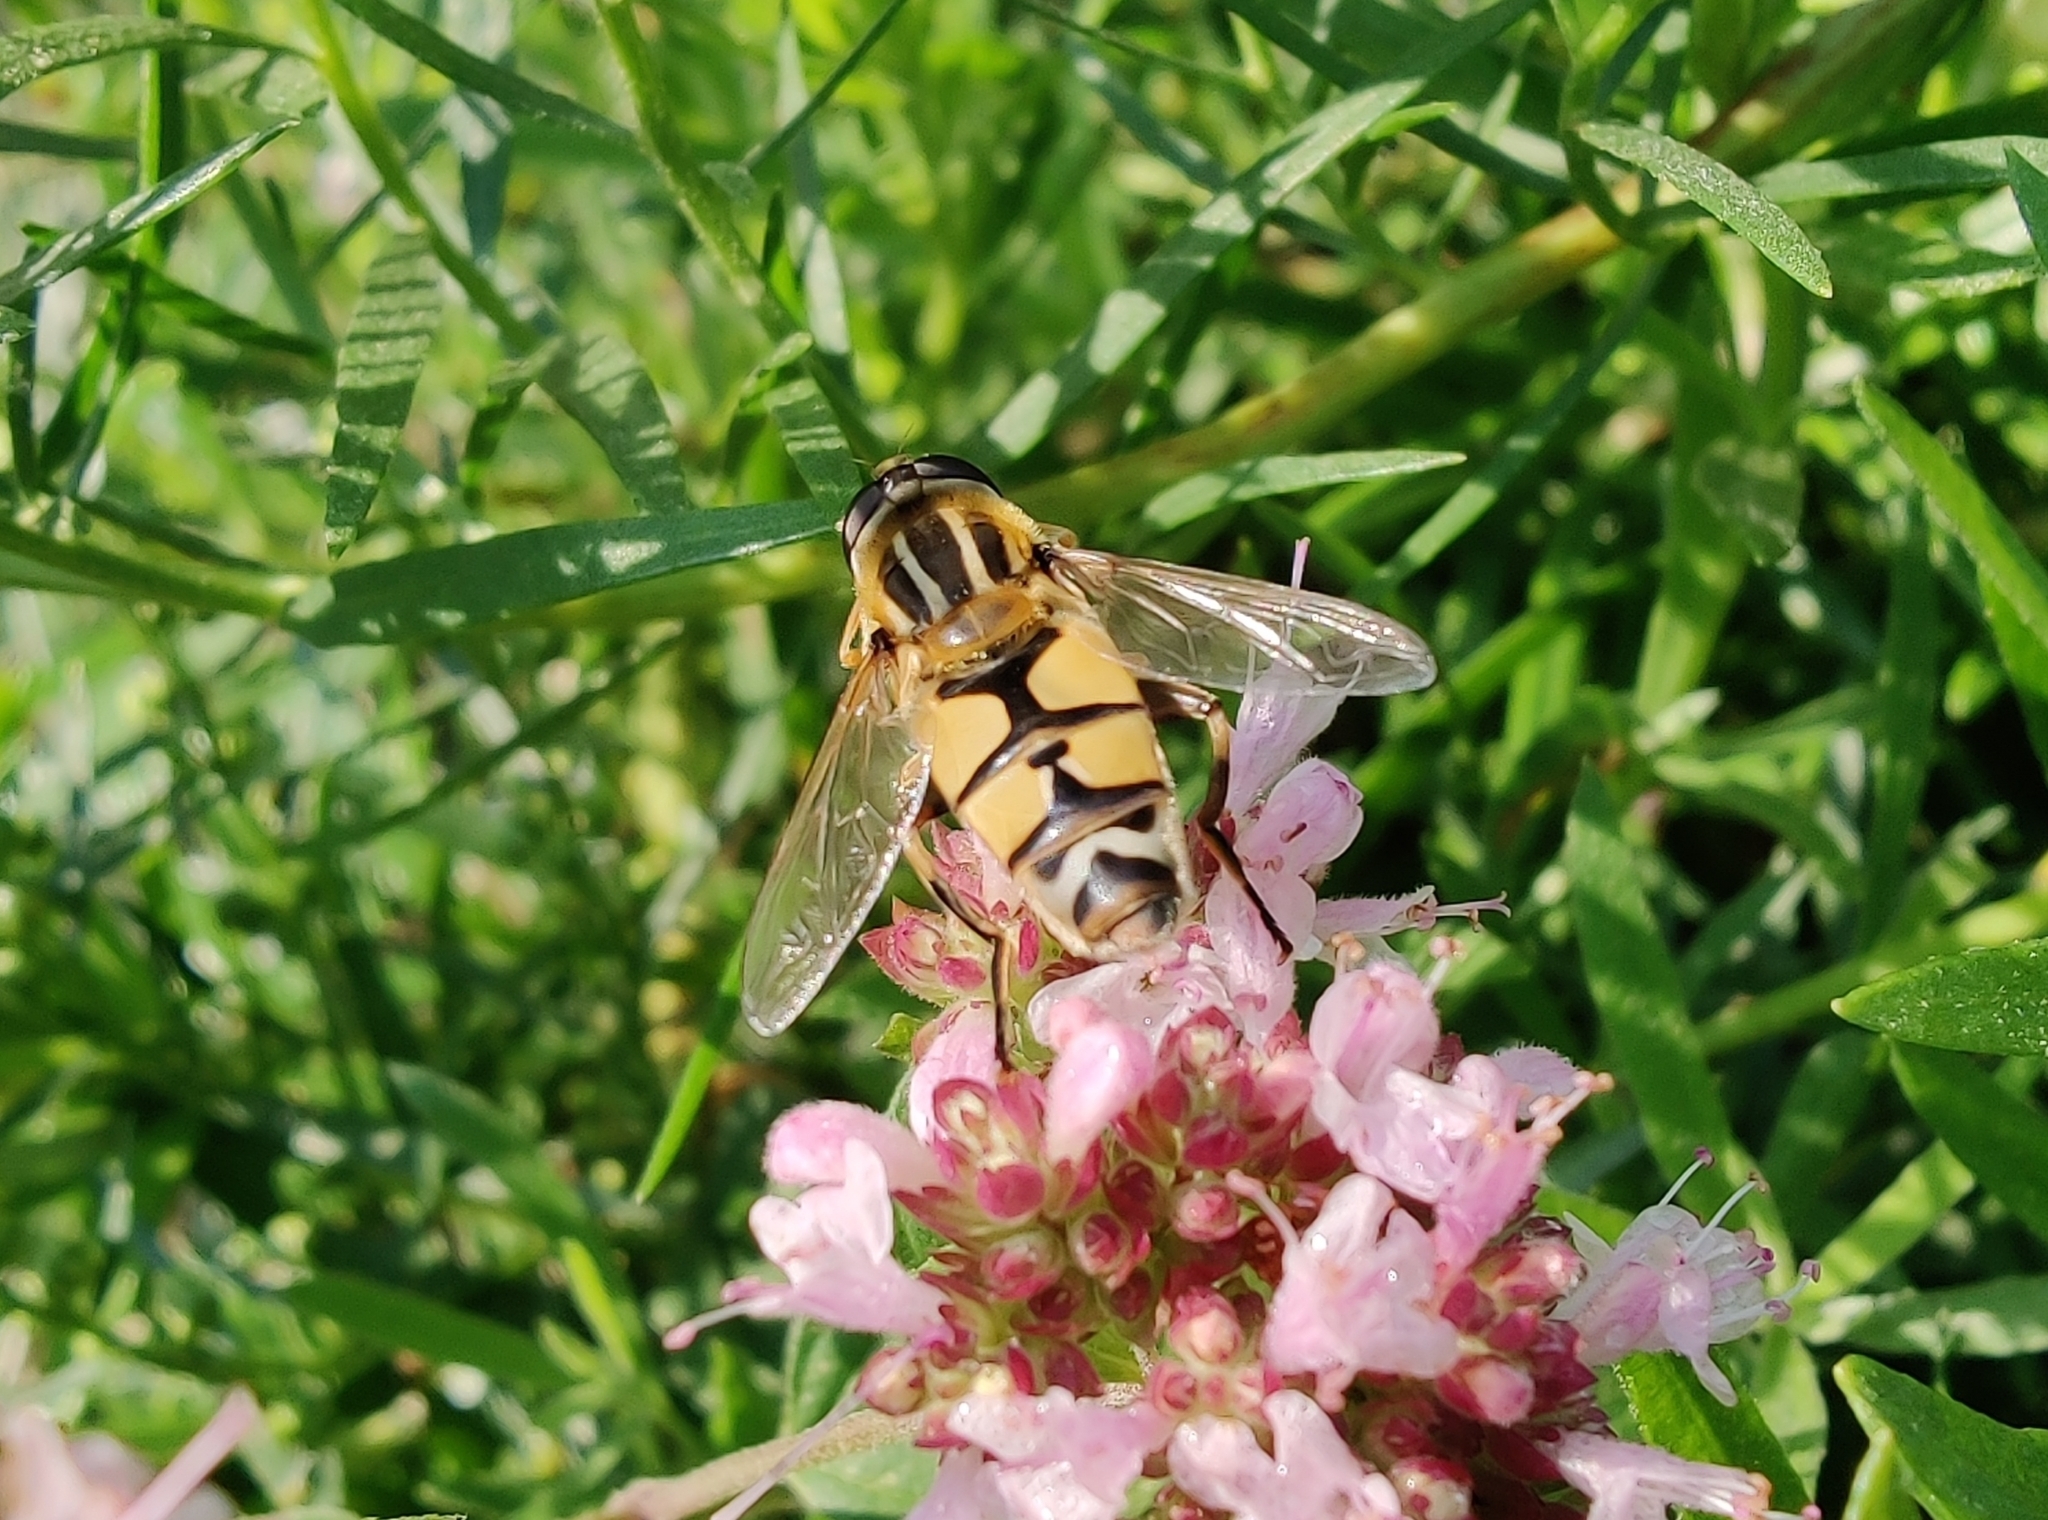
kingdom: Animalia
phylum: Arthropoda
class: Insecta
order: Diptera
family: Syrphidae
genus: Helophilus
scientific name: Helophilus trivittatus
